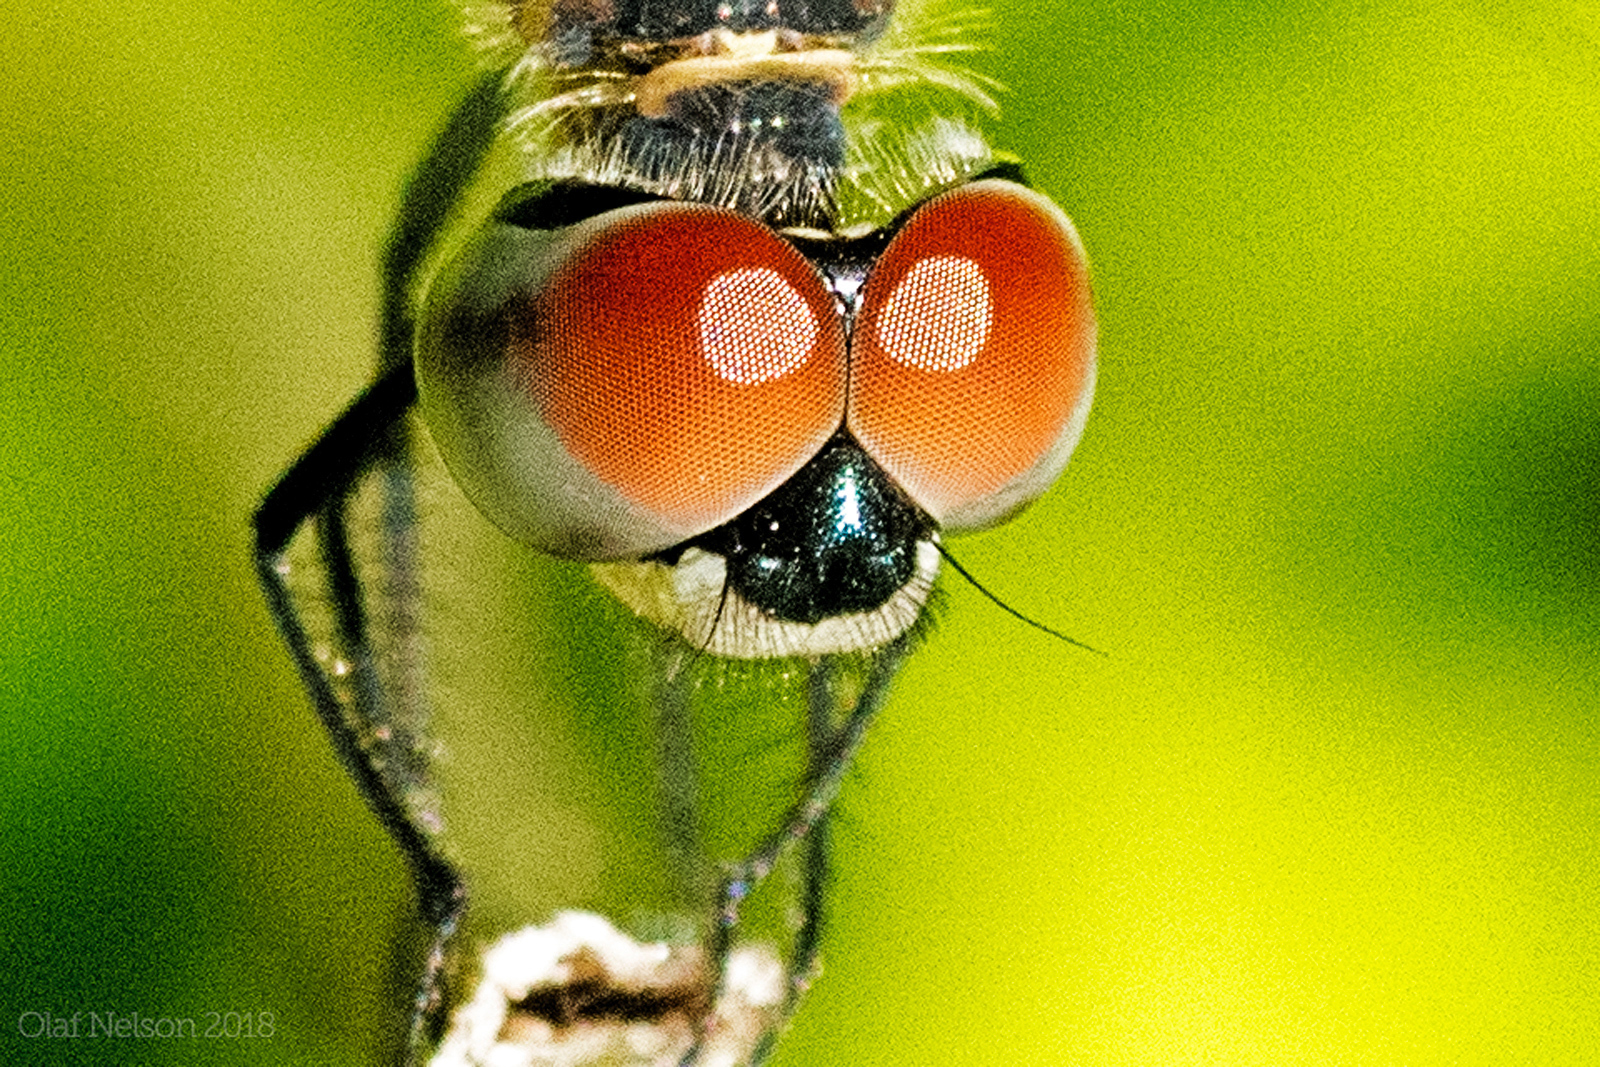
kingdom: Animalia
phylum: Arthropoda
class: Insecta
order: Odonata
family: Libellulidae
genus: Pachydiplax
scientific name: Pachydiplax longipennis
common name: Blue dasher
